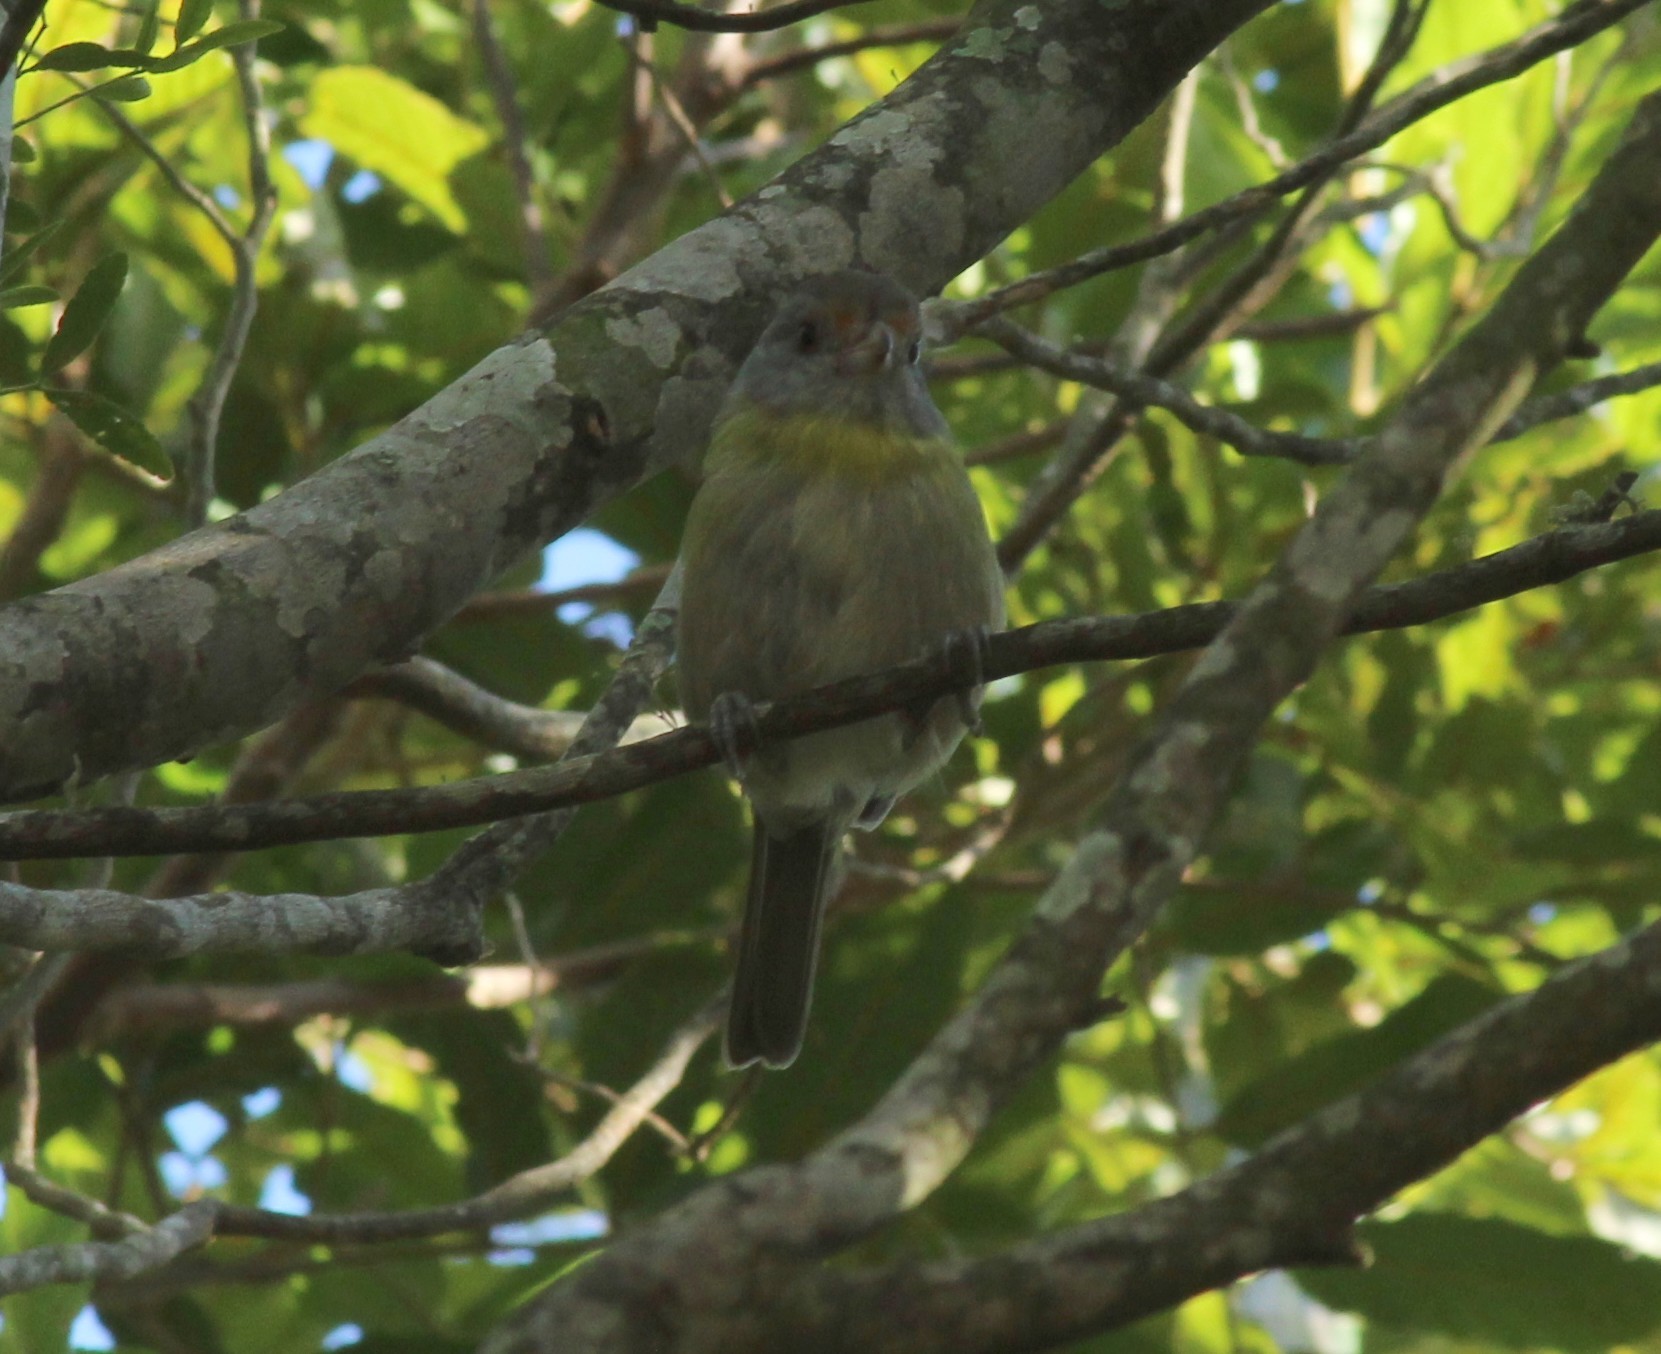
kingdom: Animalia
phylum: Chordata
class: Aves
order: Passeriformes
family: Vireonidae
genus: Cyclarhis
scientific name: Cyclarhis gujanensis
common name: Rufous-browed peppershrike
